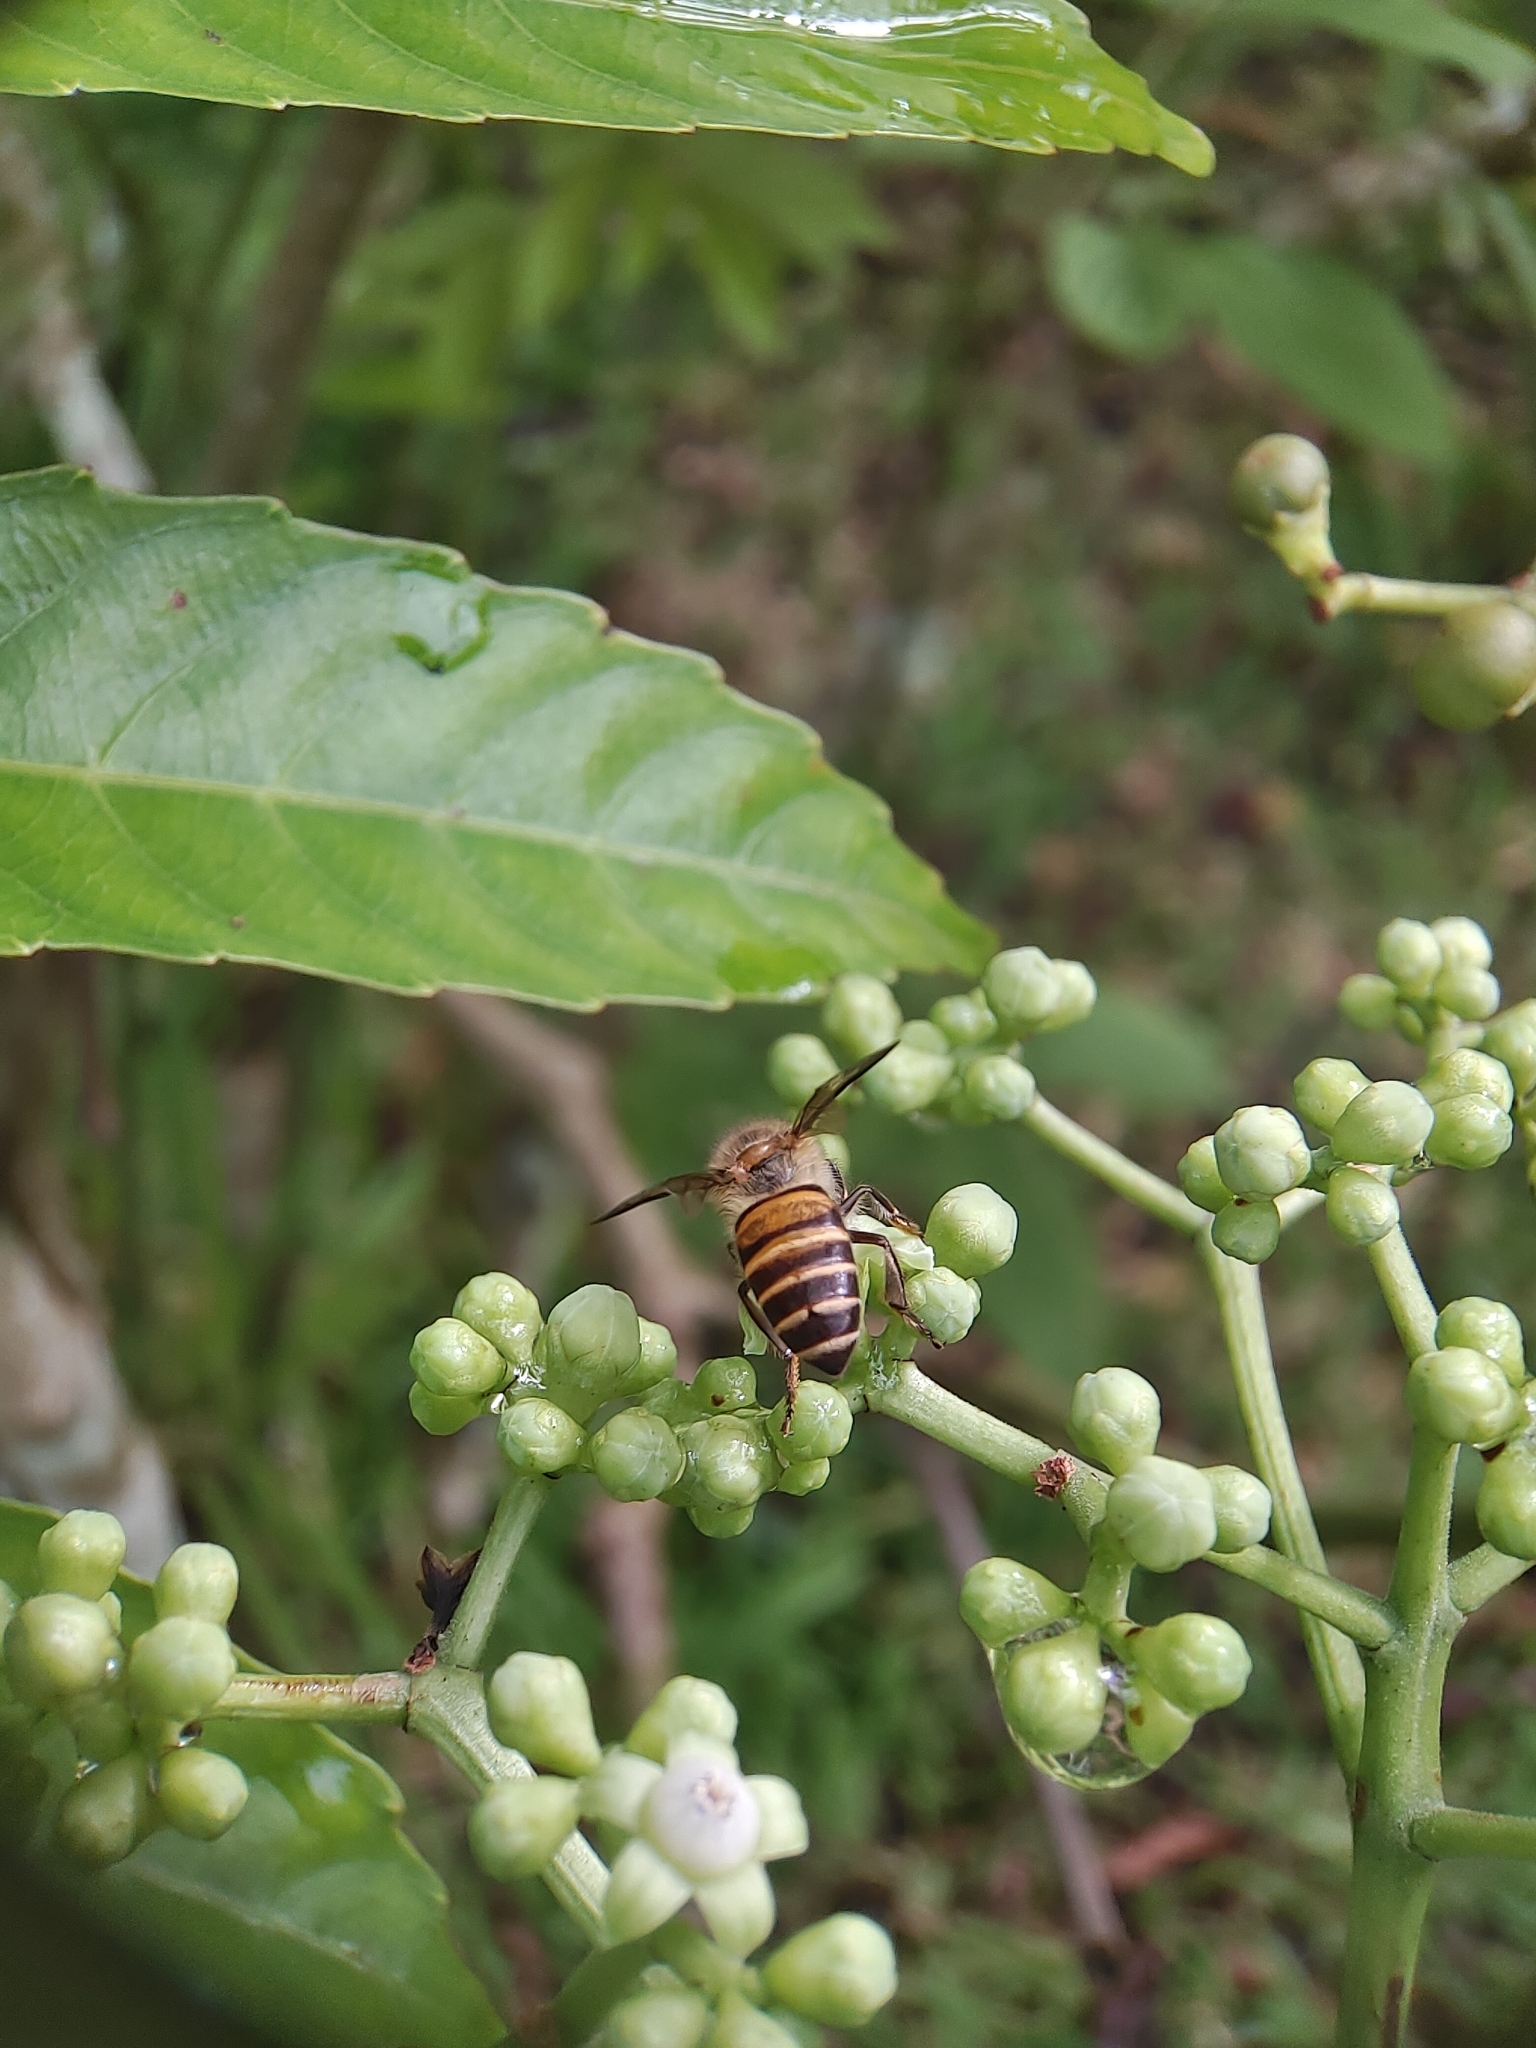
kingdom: Animalia
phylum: Arthropoda
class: Insecta
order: Hymenoptera
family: Apidae
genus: Apis
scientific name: Apis cerana
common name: Honey bee
